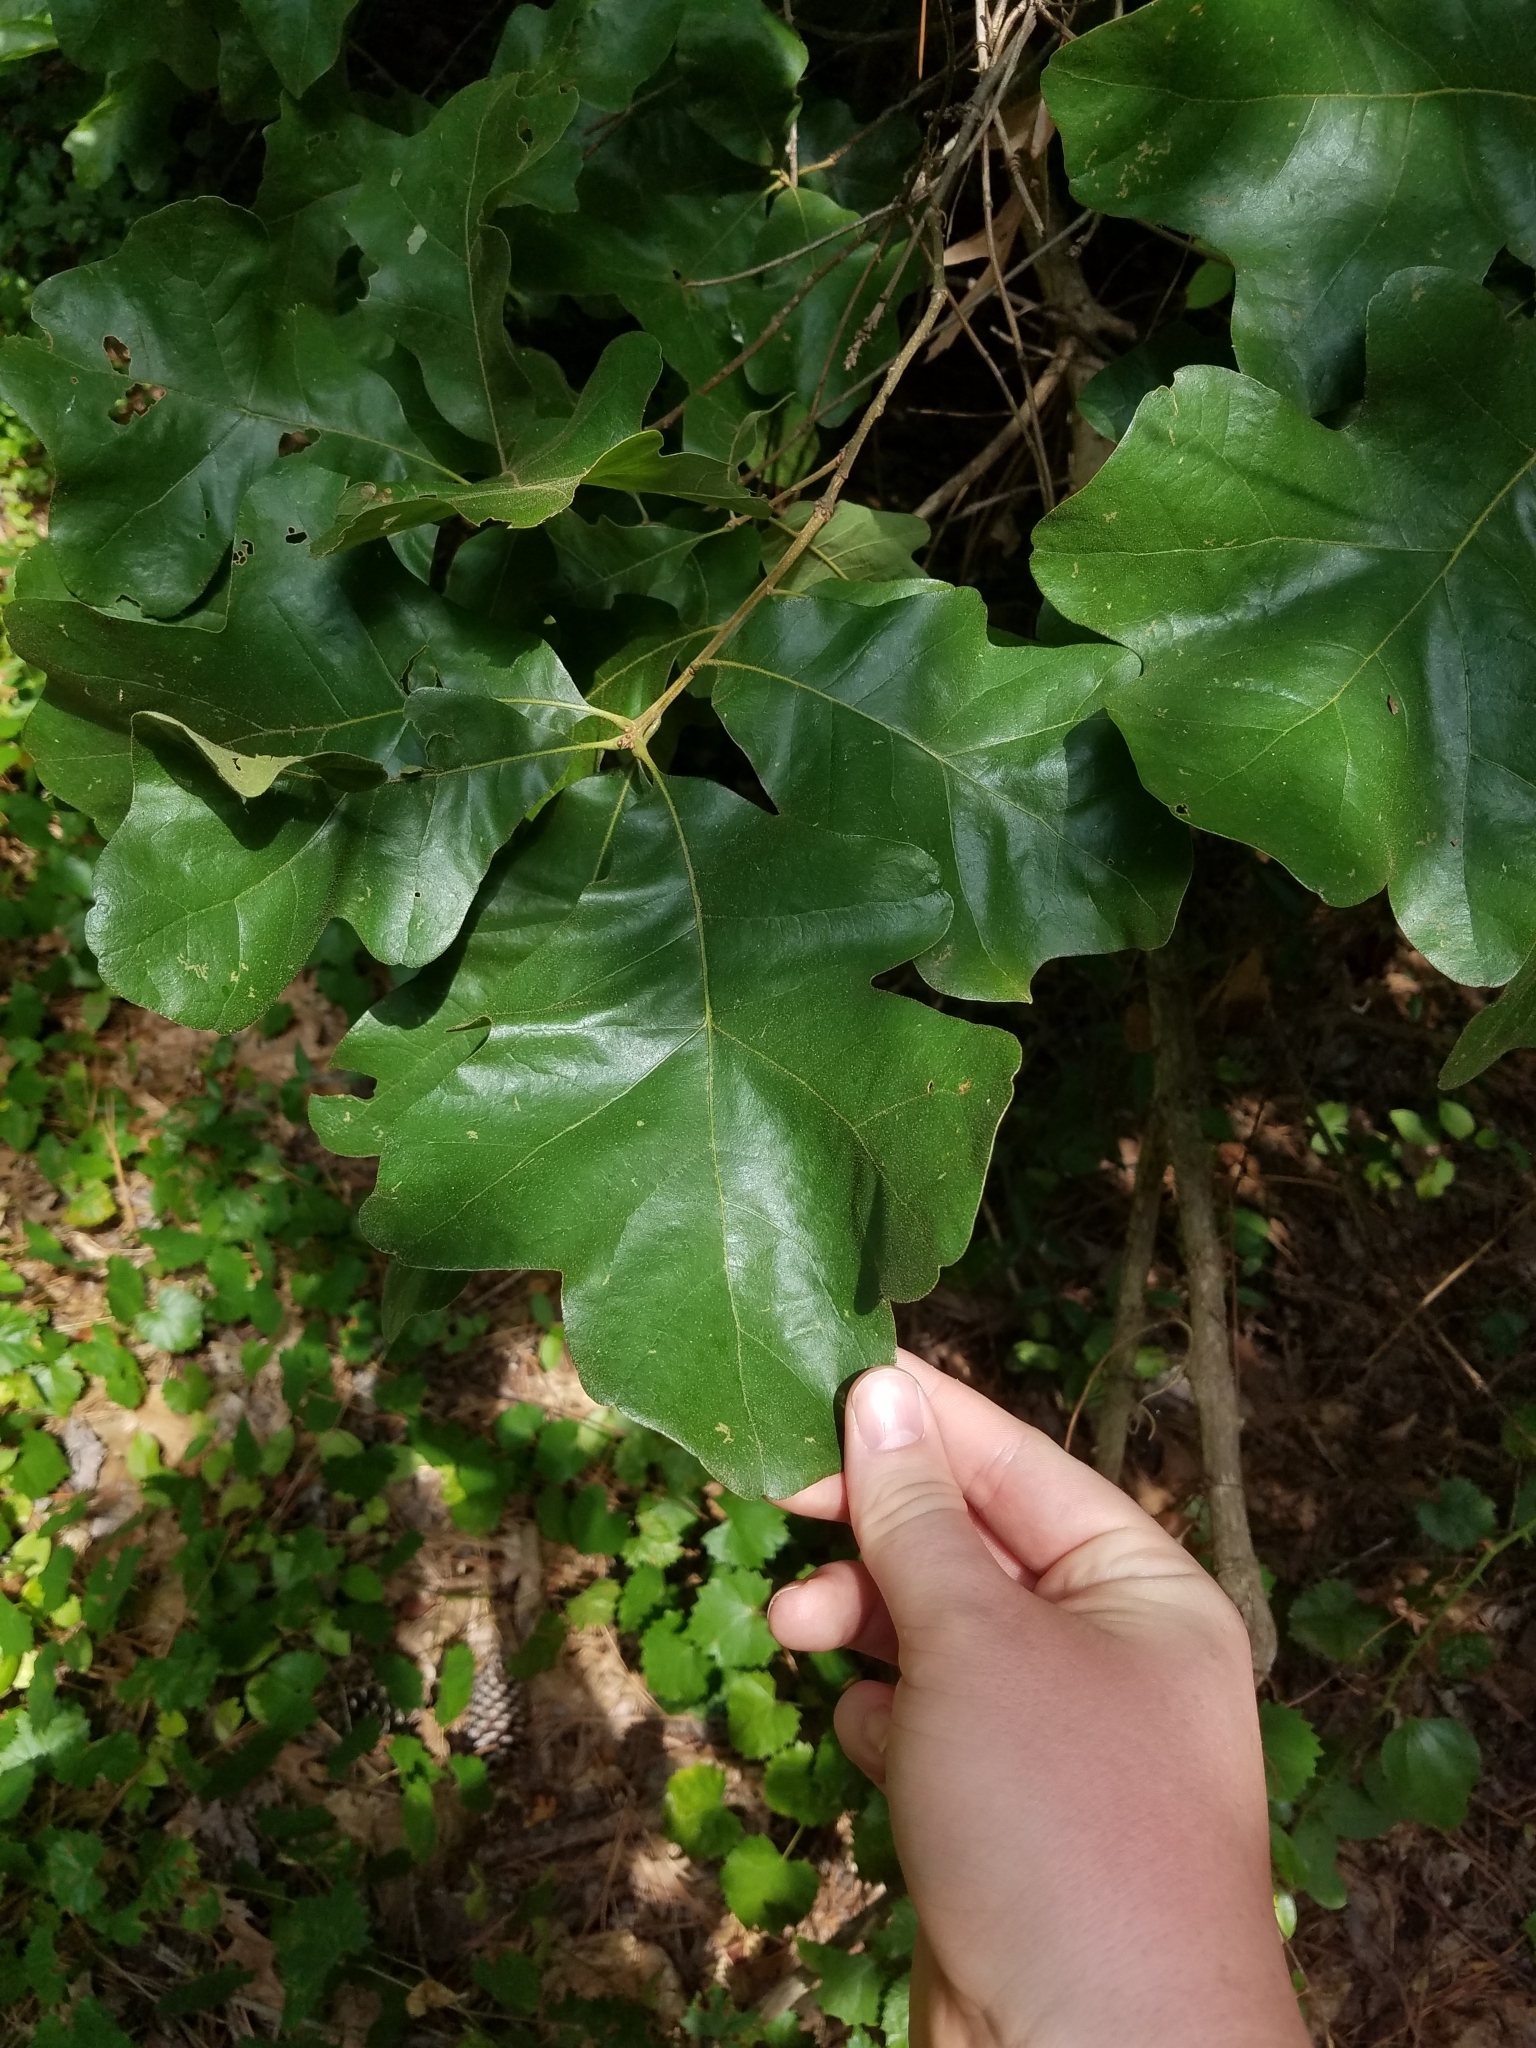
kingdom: Plantae
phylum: Tracheophyta
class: Magnoliopsida
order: Fagales
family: Fagaceae
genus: Quercus
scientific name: Quercus stellata
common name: Post oak
